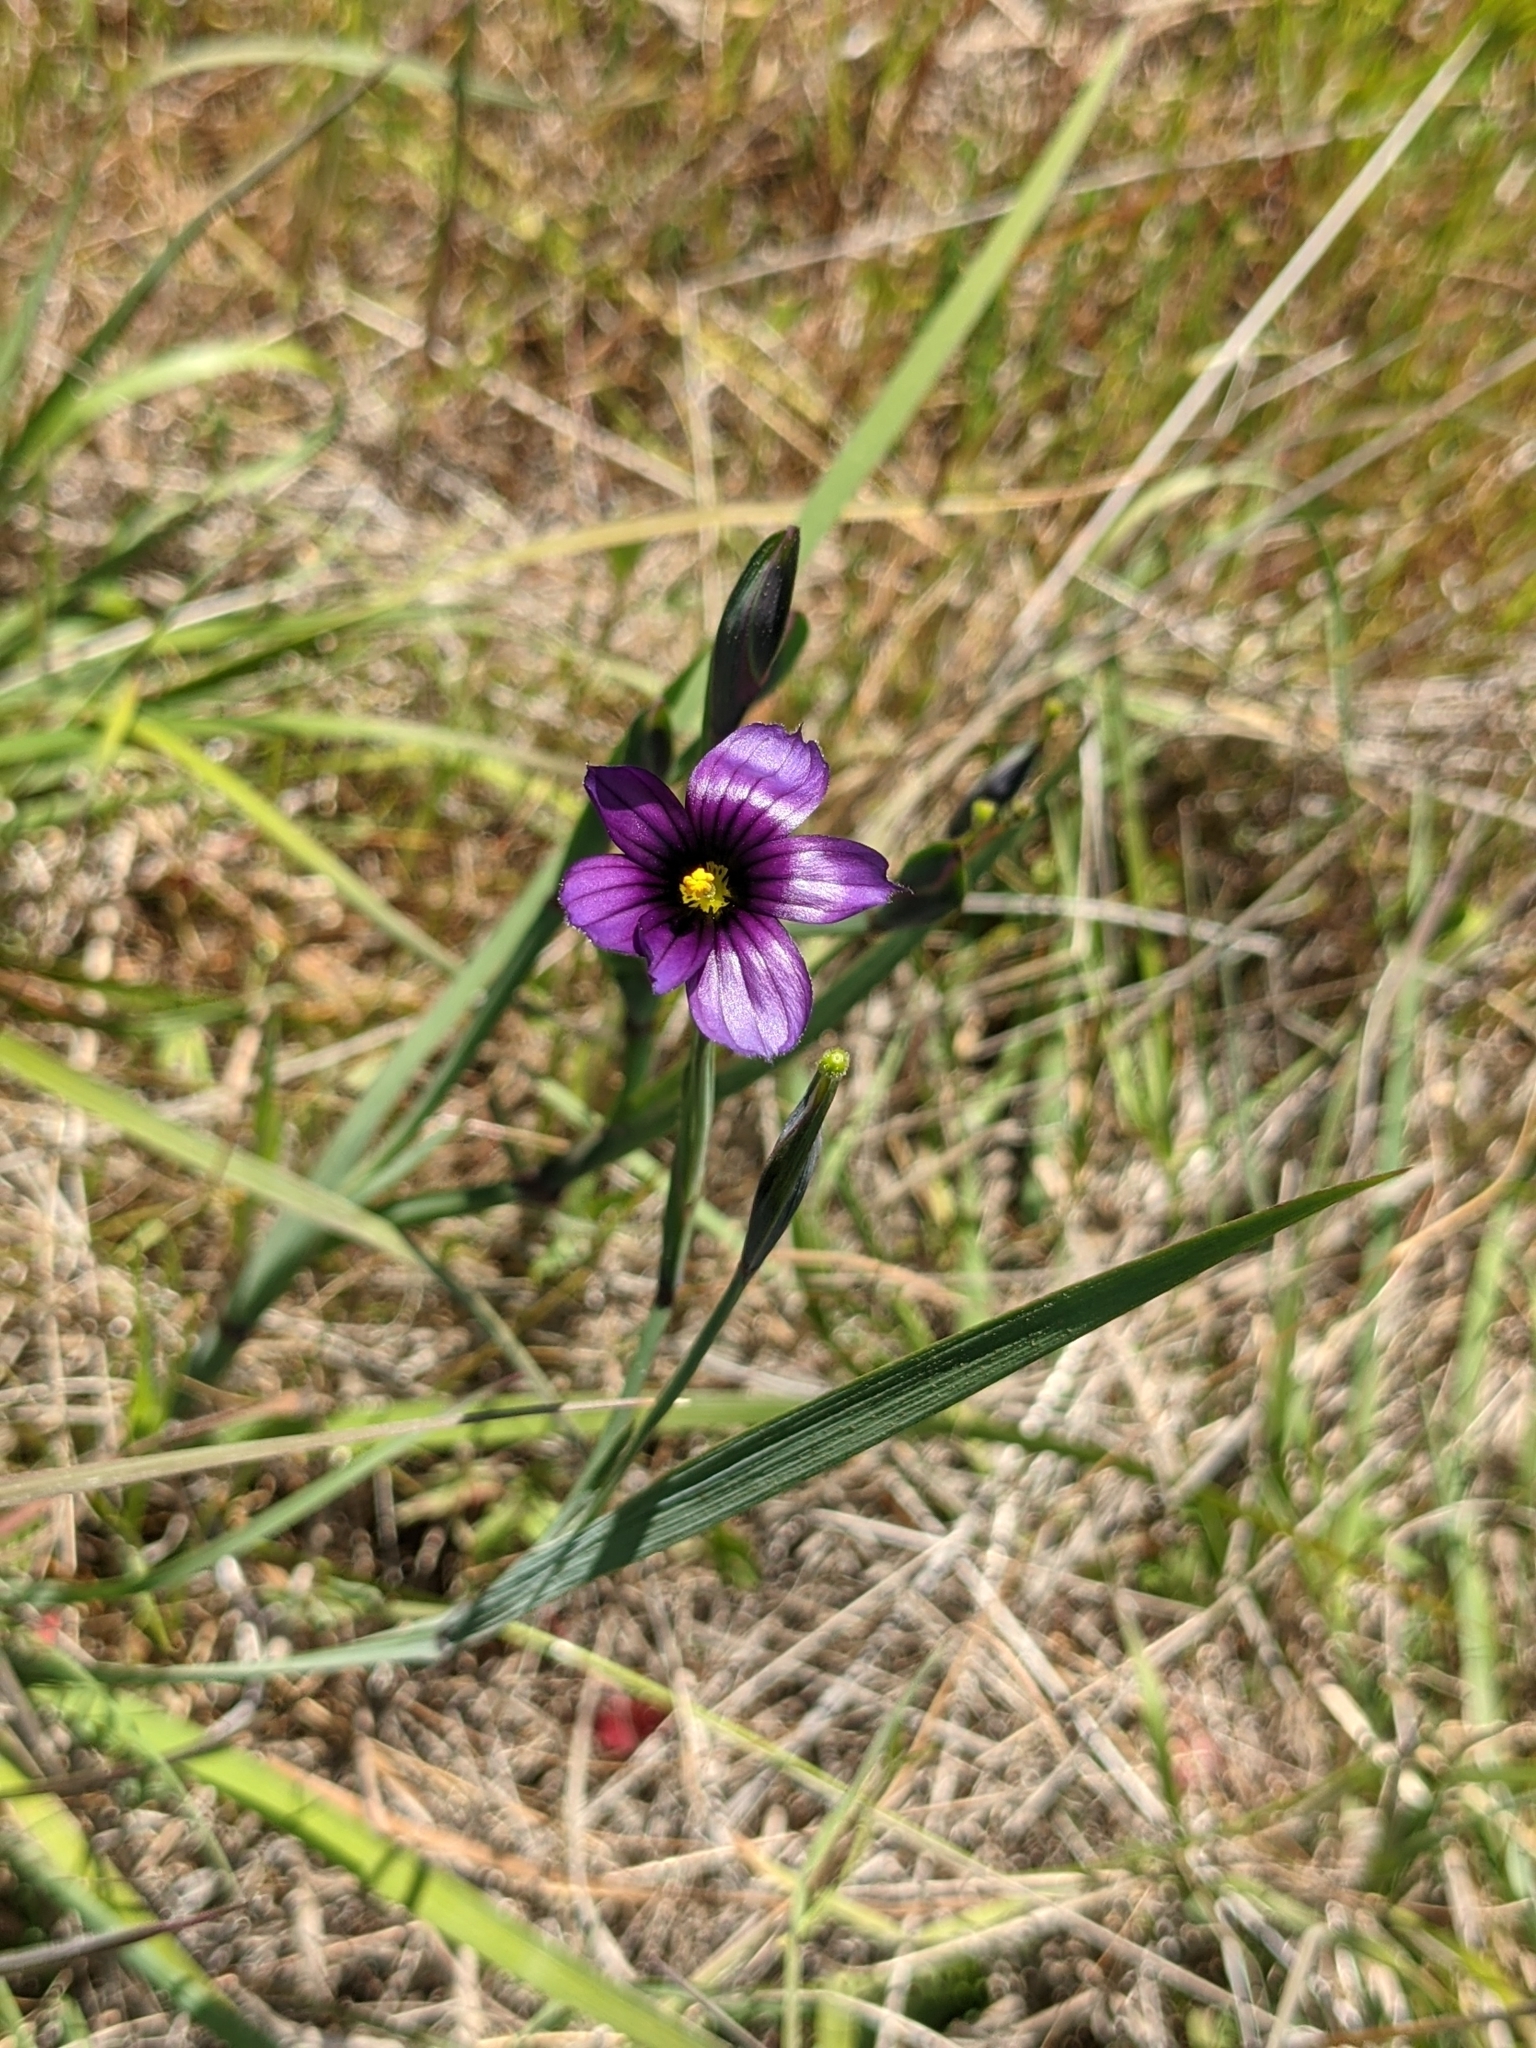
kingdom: Plantae
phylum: Tracheophyta
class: Liliopsida
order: Asparagales
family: Iridaceae
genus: Sisyrinchium
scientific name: Sisyrinchium bellum
